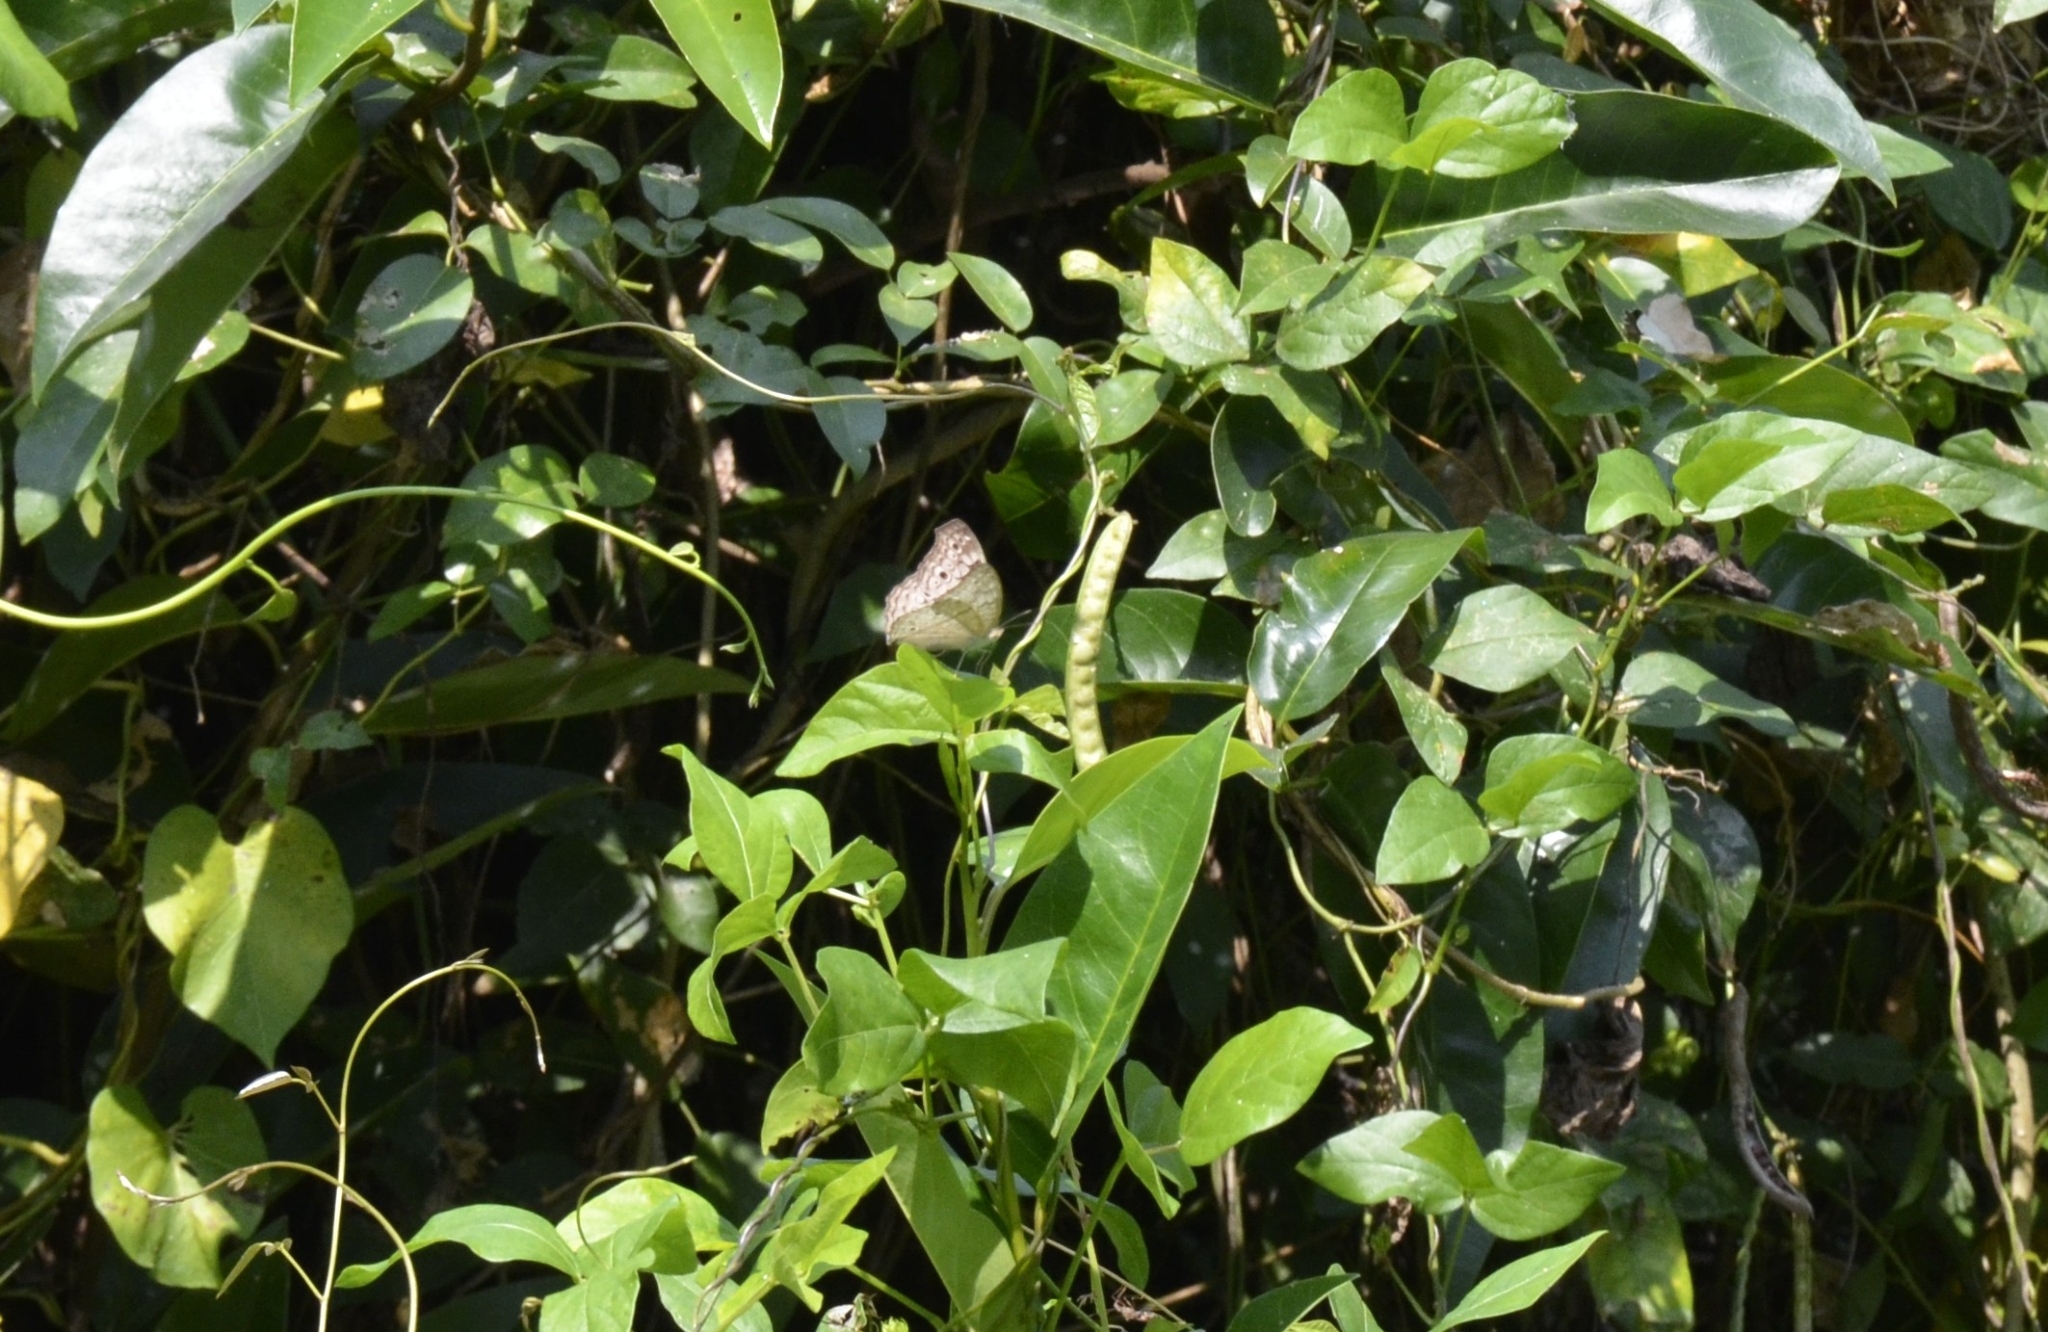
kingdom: Animalia
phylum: Arthropoda
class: Insecta
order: Lepidoptera
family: Nymphalidae
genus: Junonia
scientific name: Junonia atlites
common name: Grey pansy
